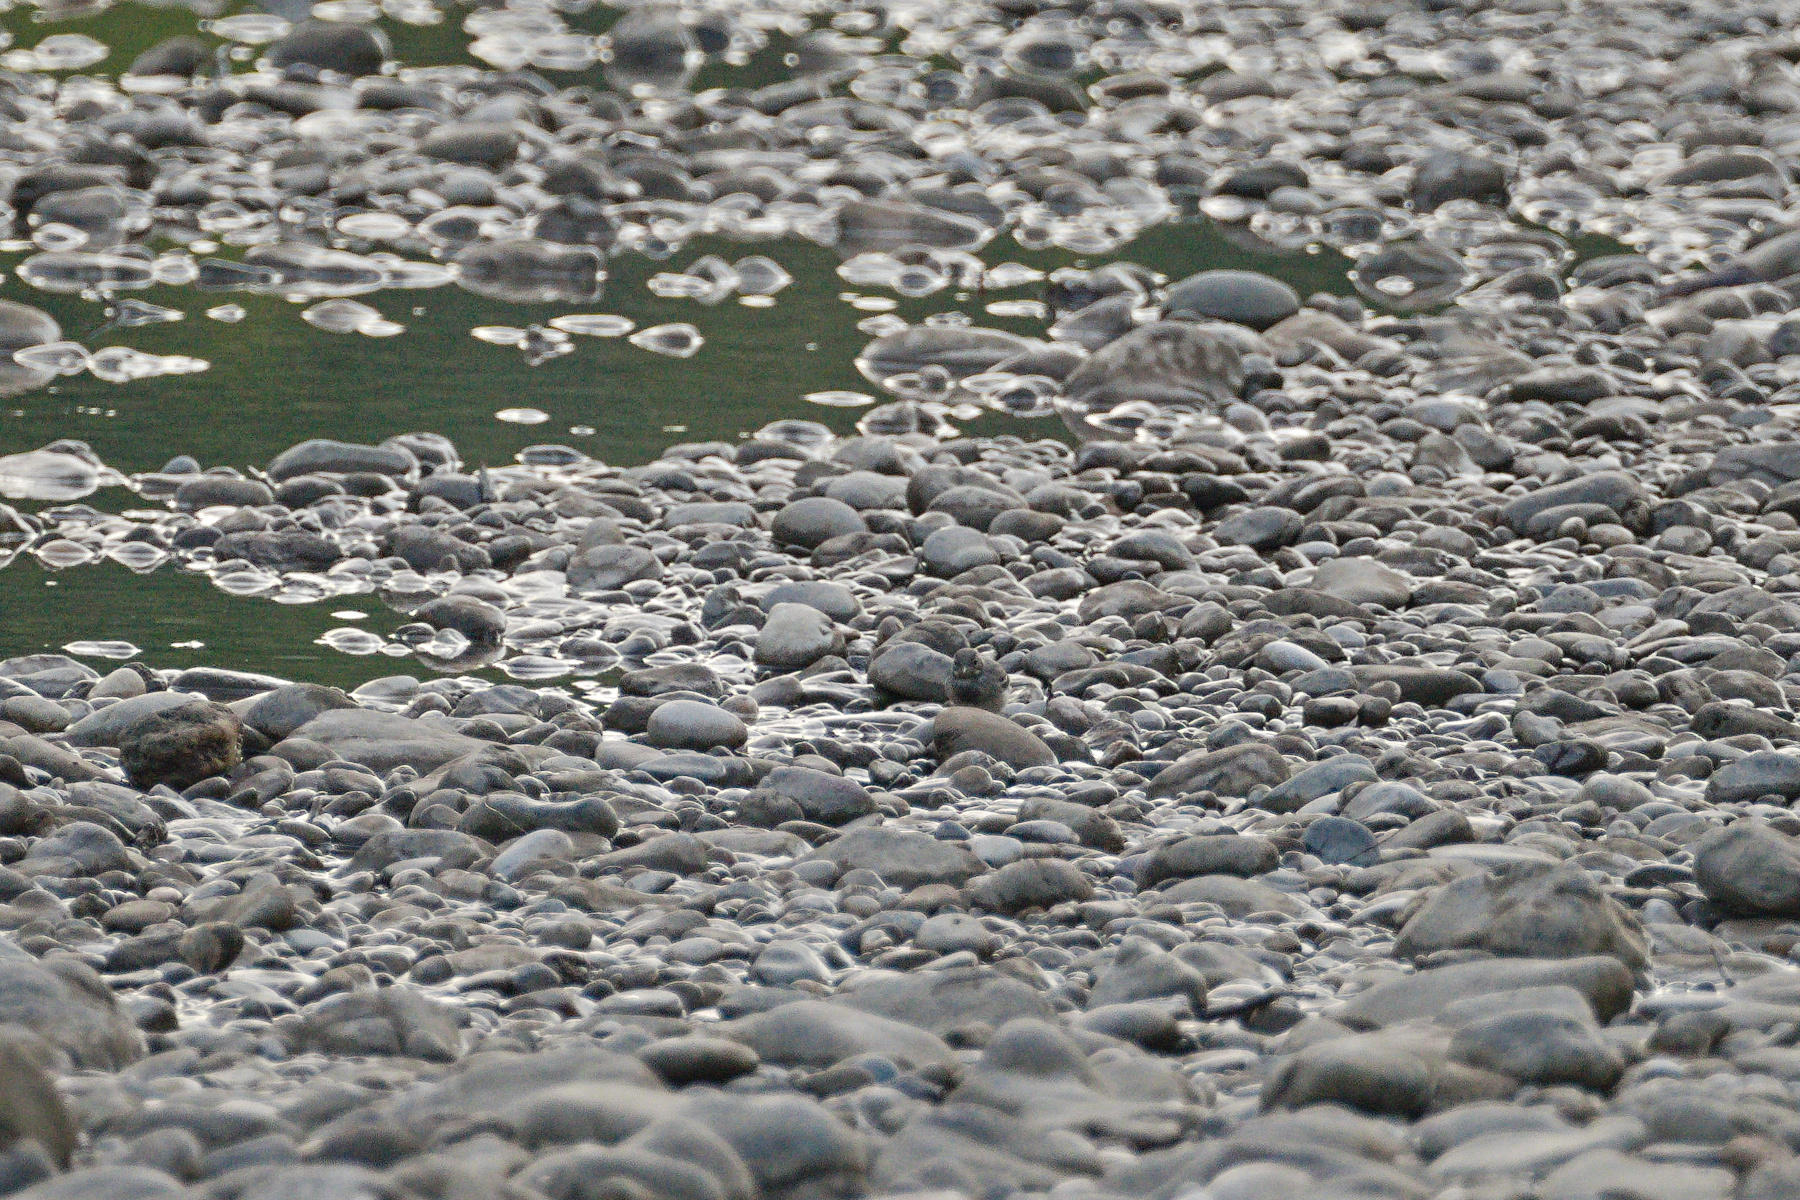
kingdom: Animalia
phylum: Chordata
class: Aves
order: Passeriformes
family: Motacillidae
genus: Motacilla
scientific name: Motacilla alba
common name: White wagtail
